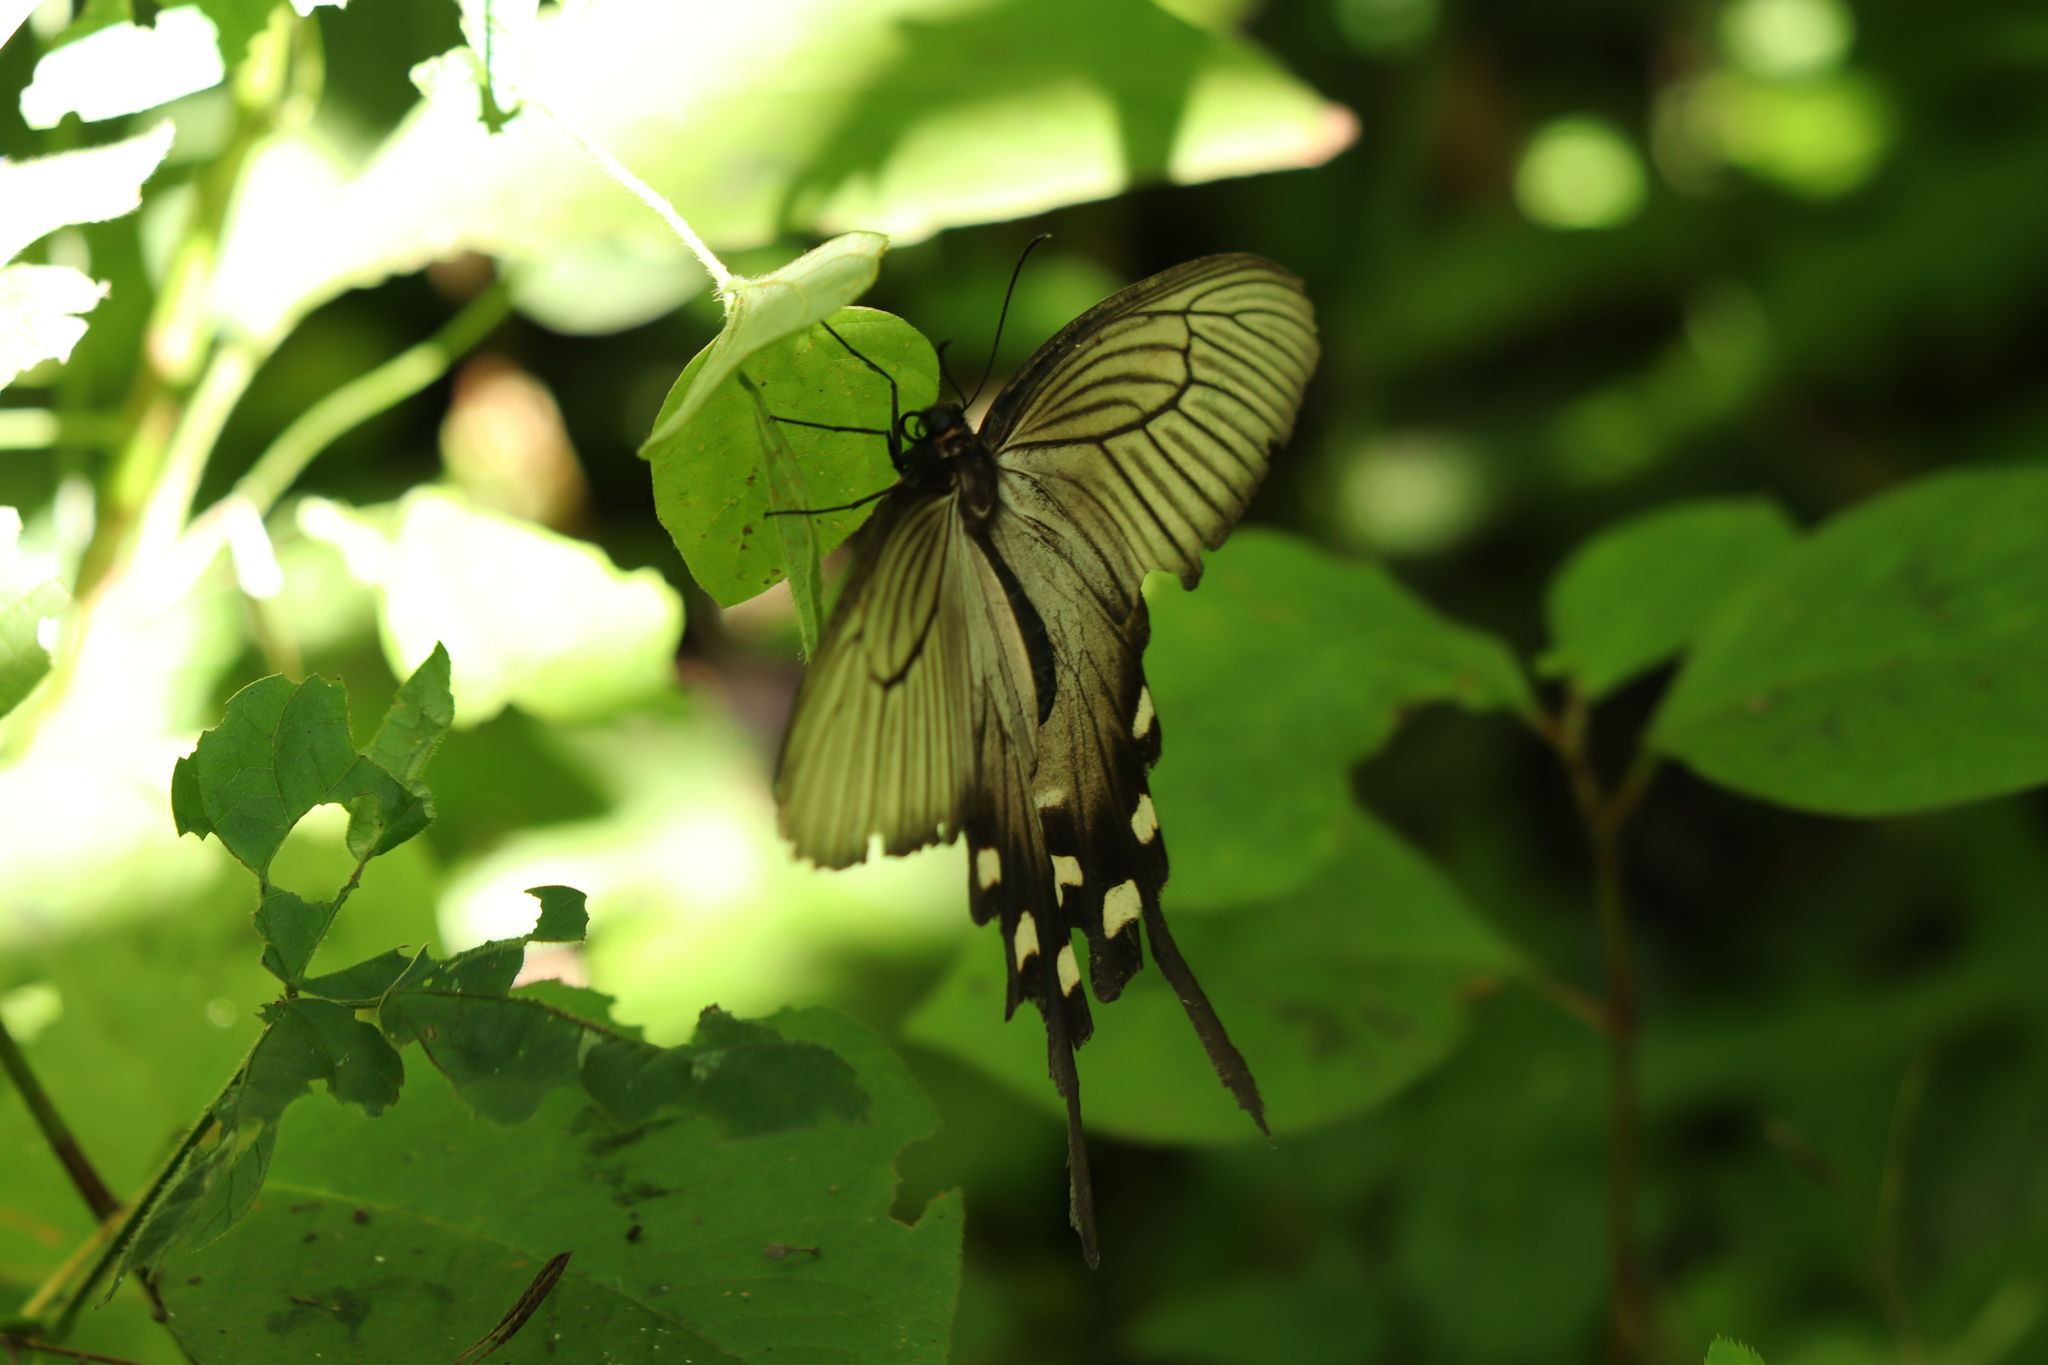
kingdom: Animalia
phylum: Arthropoda
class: Insecta
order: Lepidoptera
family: Papilionidae
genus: Byasa
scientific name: Byasa alcinous
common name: Chinese windmill
